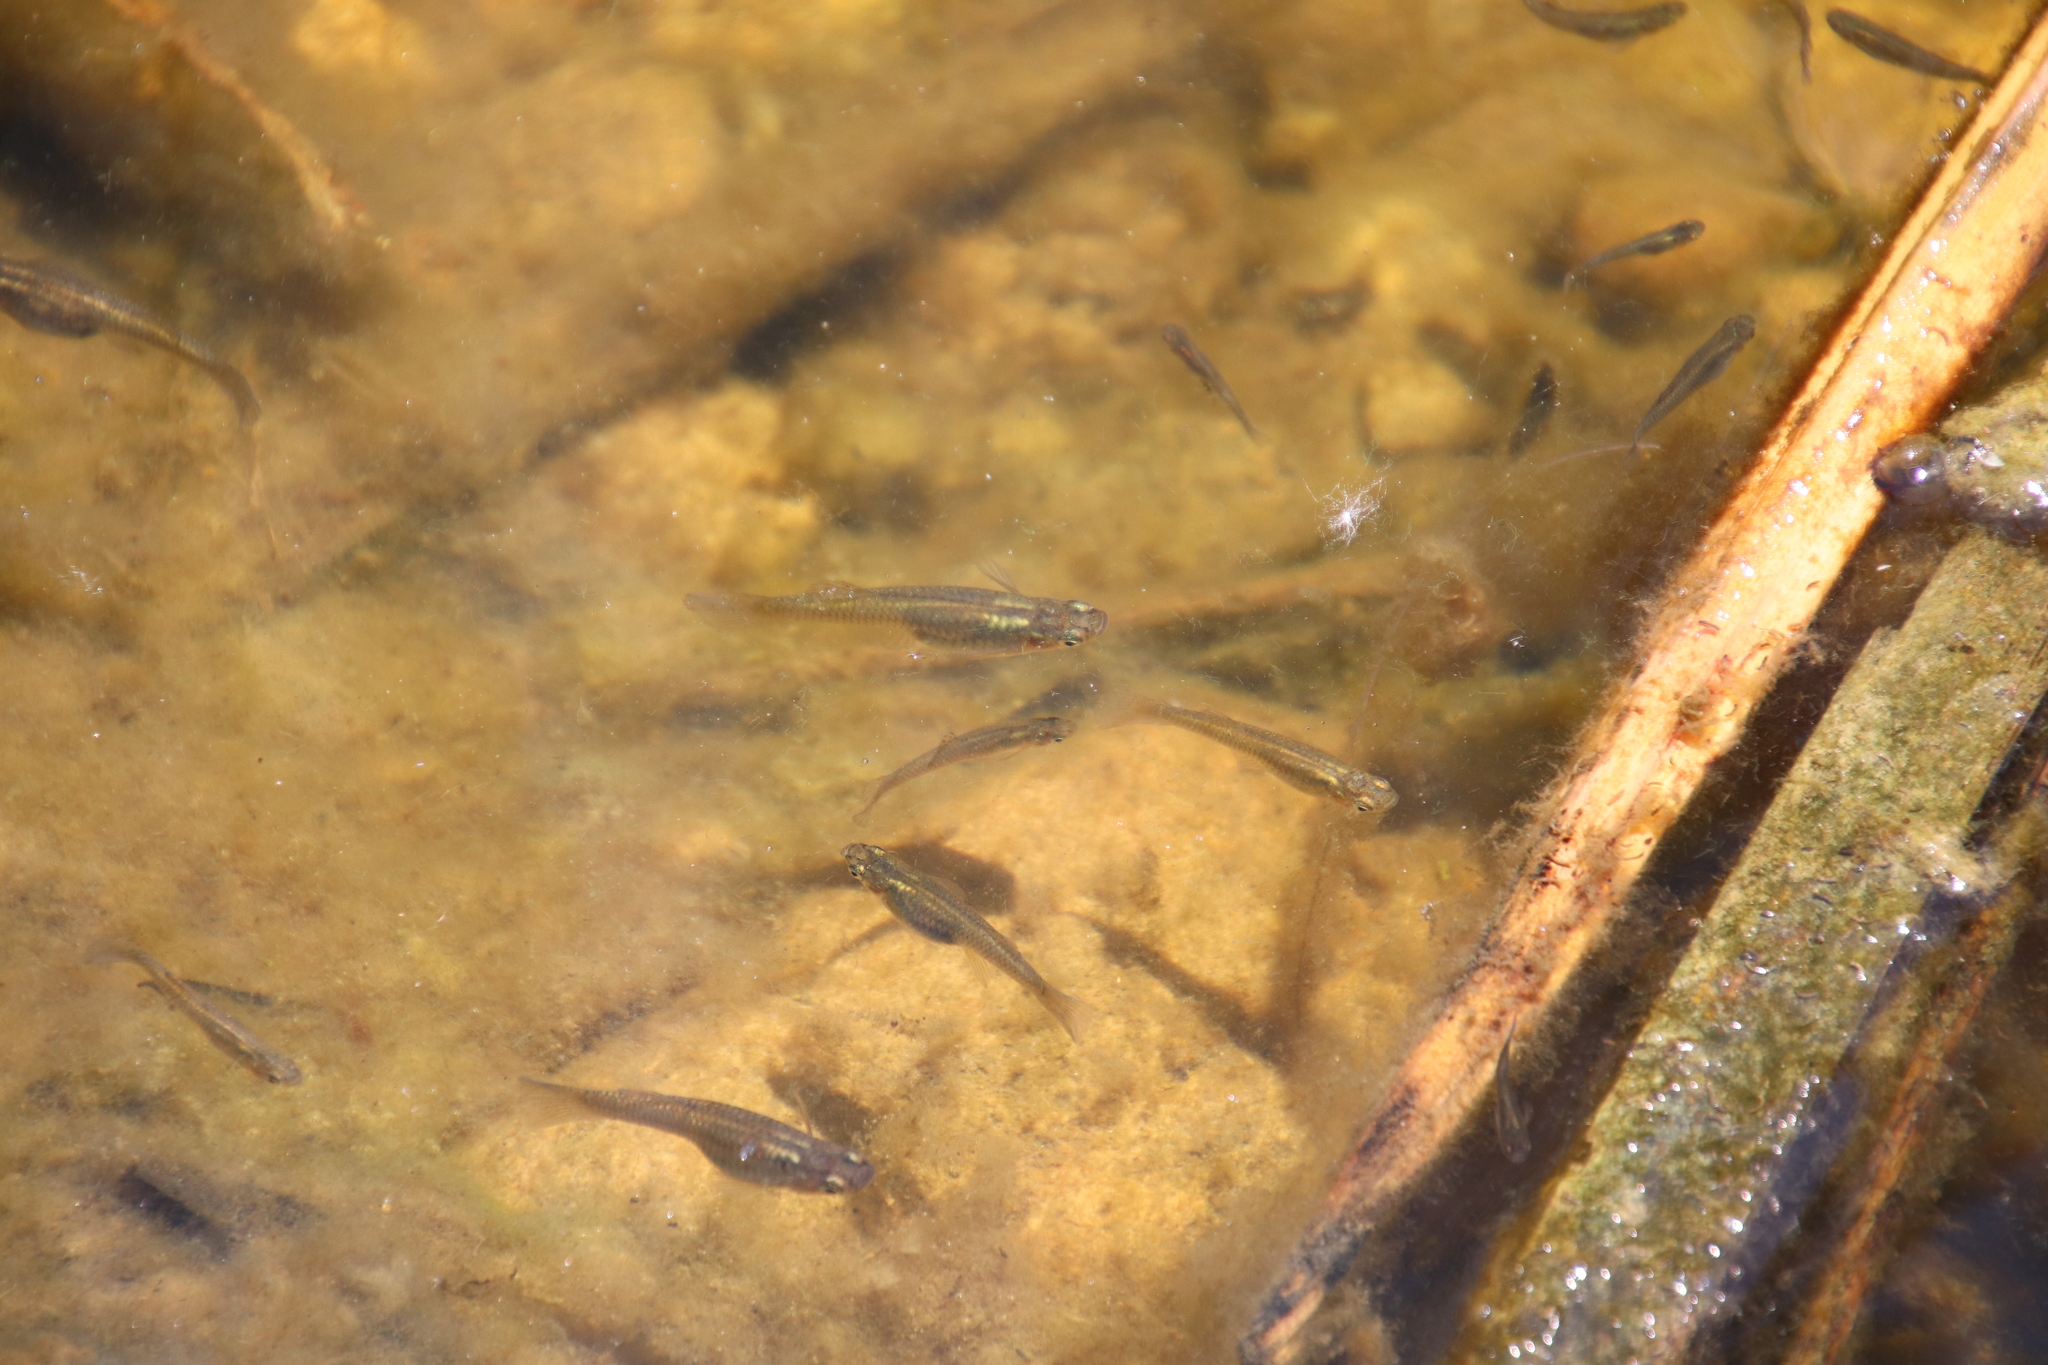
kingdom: Animalia
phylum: Chordata
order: Cyprinodontiformes
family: Poeciliidae
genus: Gambusia
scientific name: Gambusia affinis
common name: Mosquitofish
